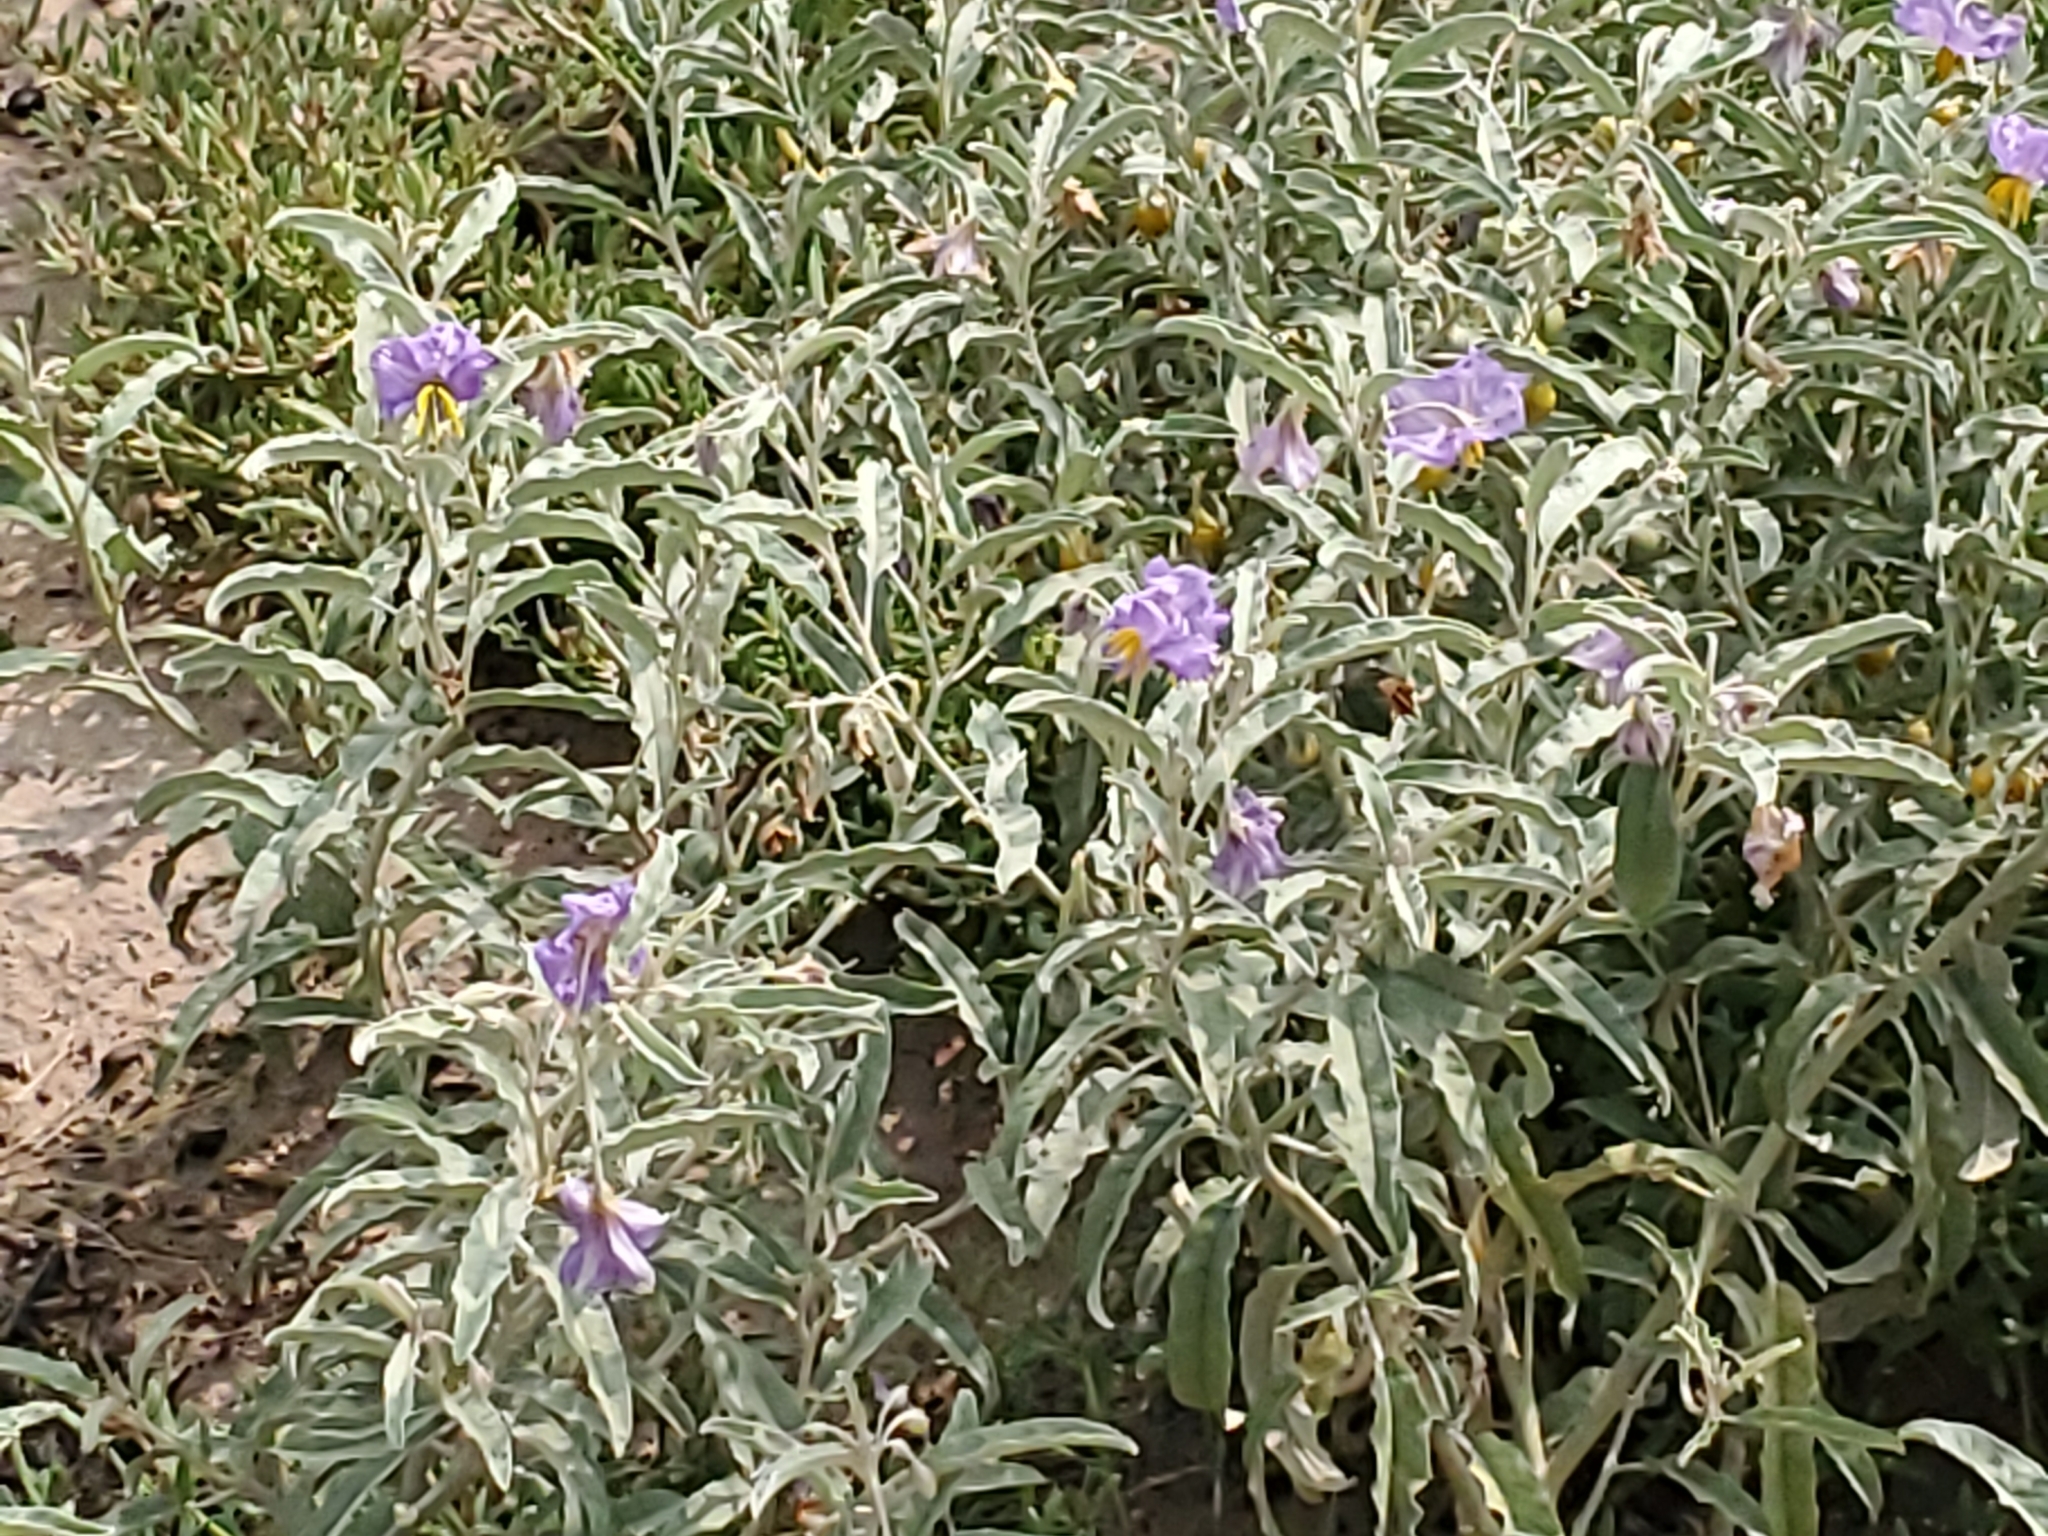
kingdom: Plantae
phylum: Tracheophyta
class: Magnoliopsida
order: Solanales
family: Solanaceae
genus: Solanum
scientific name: Solanum elaeagnifolium
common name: Silverleaf nightshade
